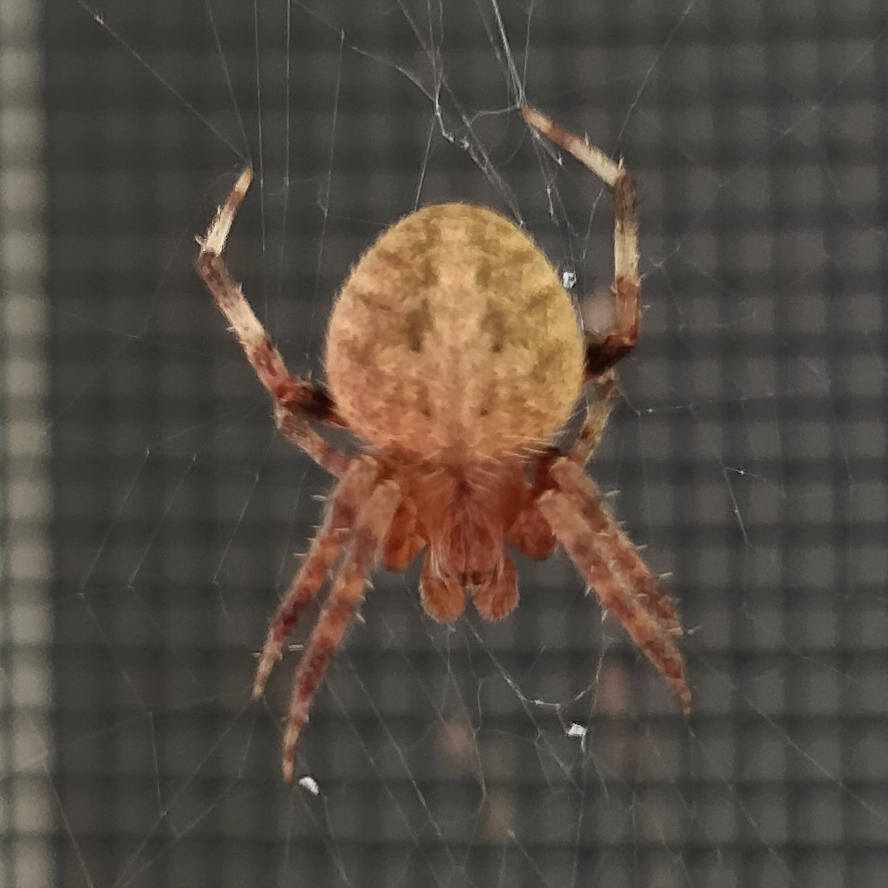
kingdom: Animalia
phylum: Arthropoda
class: Arachnida
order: Araneae
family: Araneidae
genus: Neoscona
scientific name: Neoscona crucifera
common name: Spotted orbweaver
